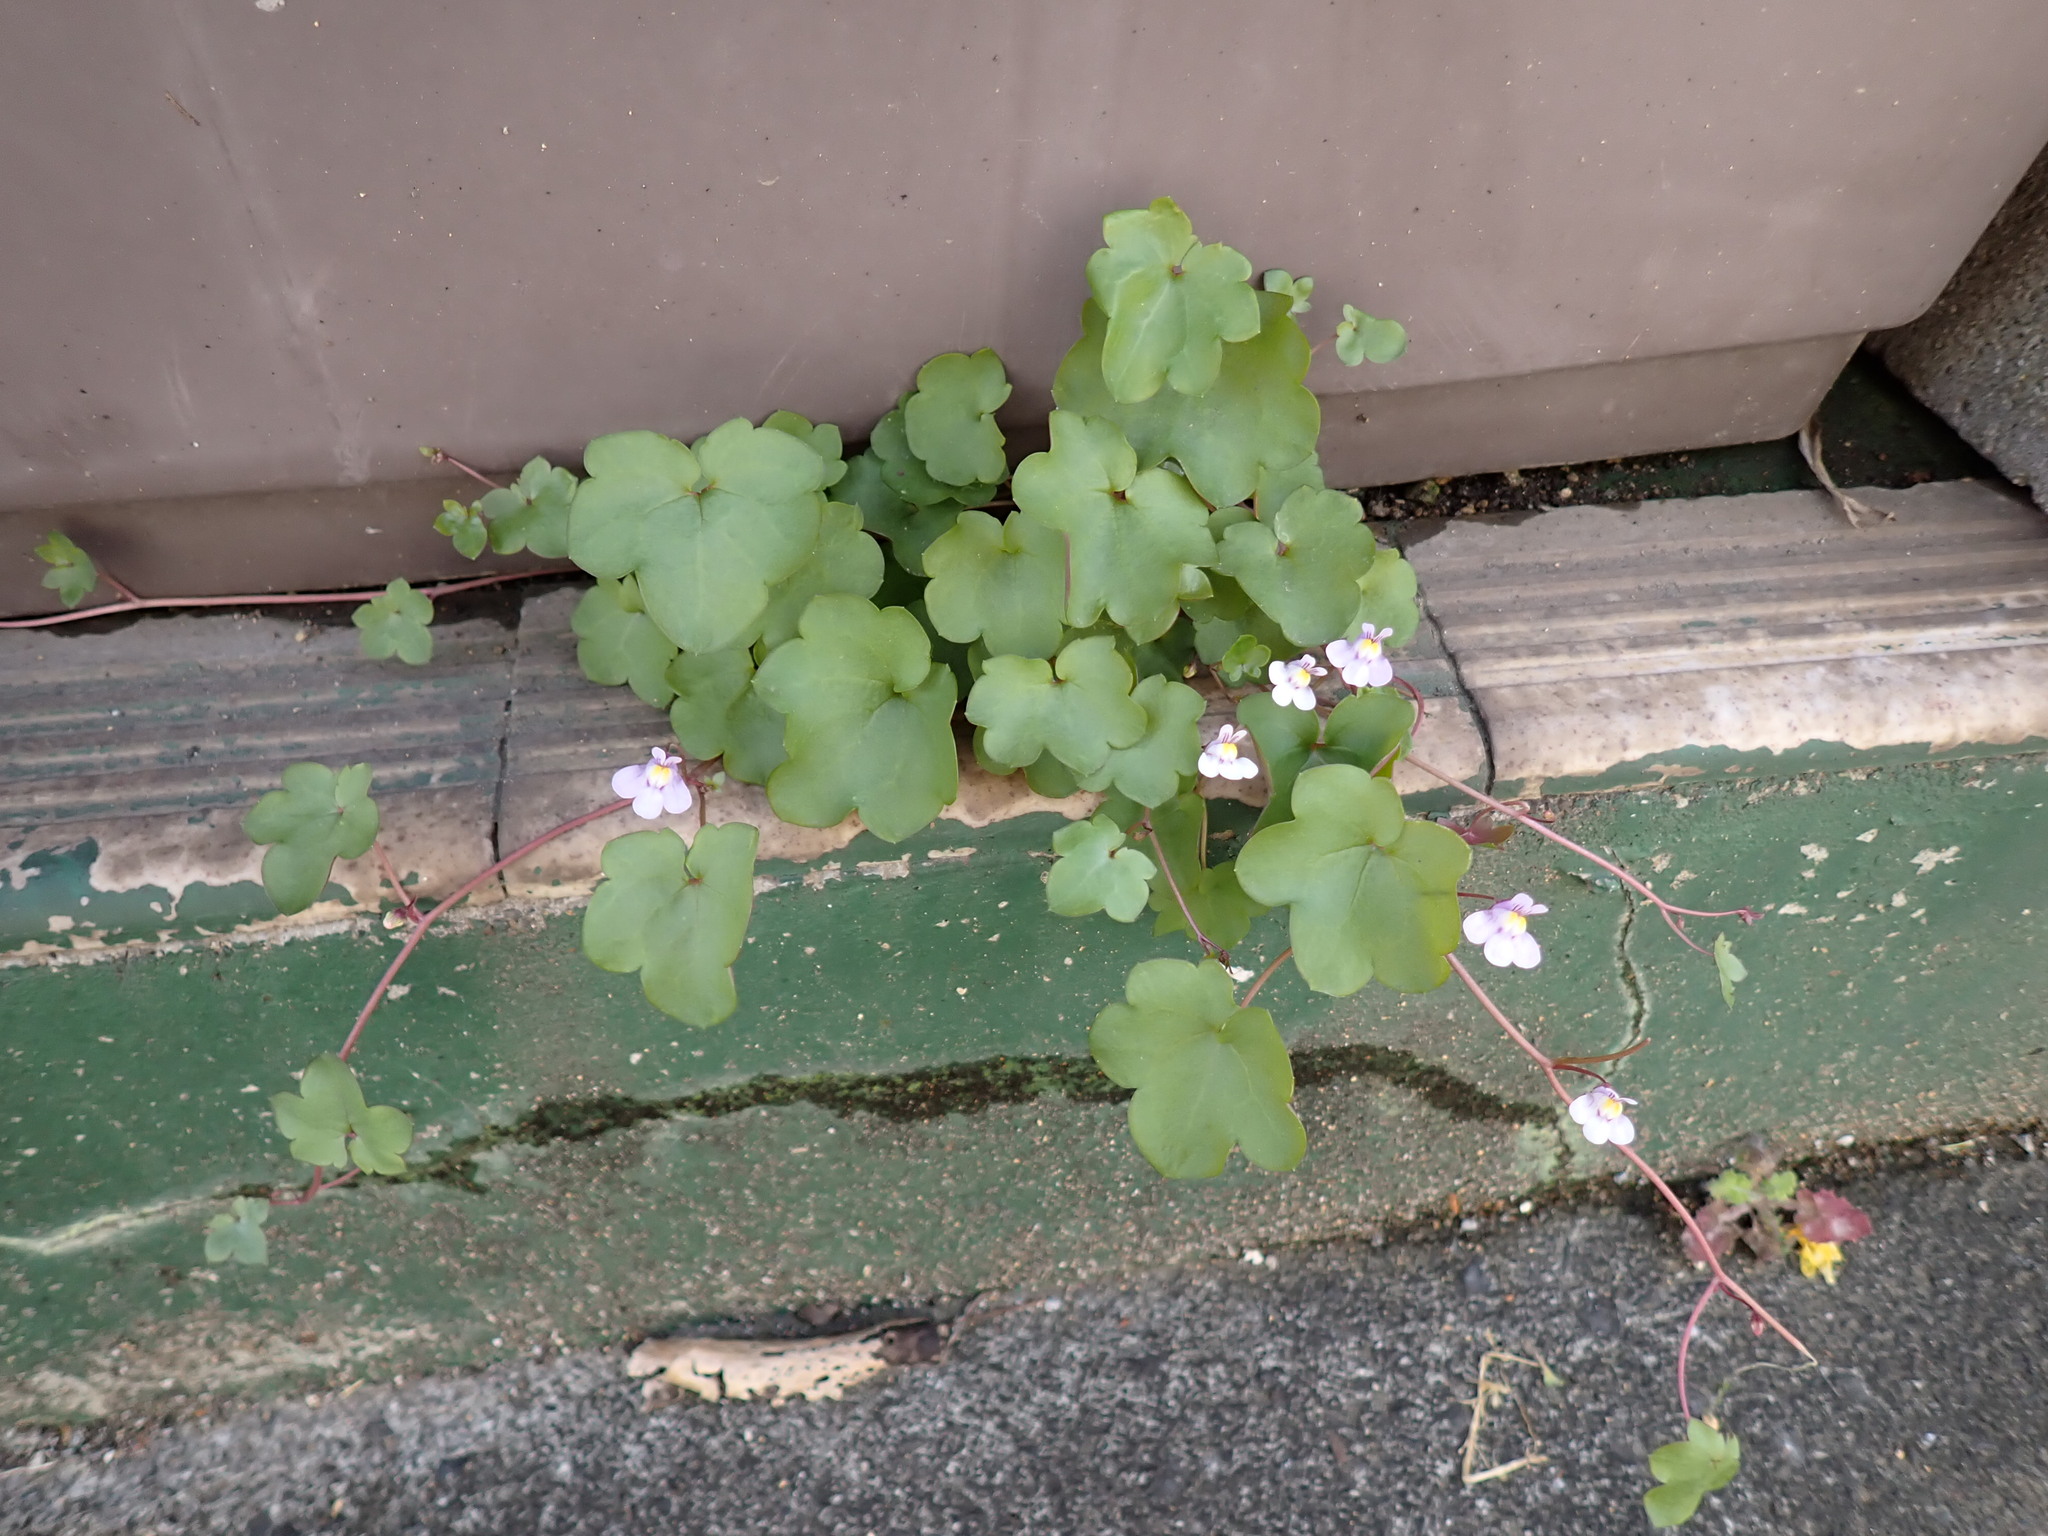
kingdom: Plantae
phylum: Tracheophyta
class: Magnoliopsida
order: Lamiales
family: Plantaginaceae
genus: Cymbalaria
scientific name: Cymbalaria muralis
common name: Ivy-leaved toadflax
